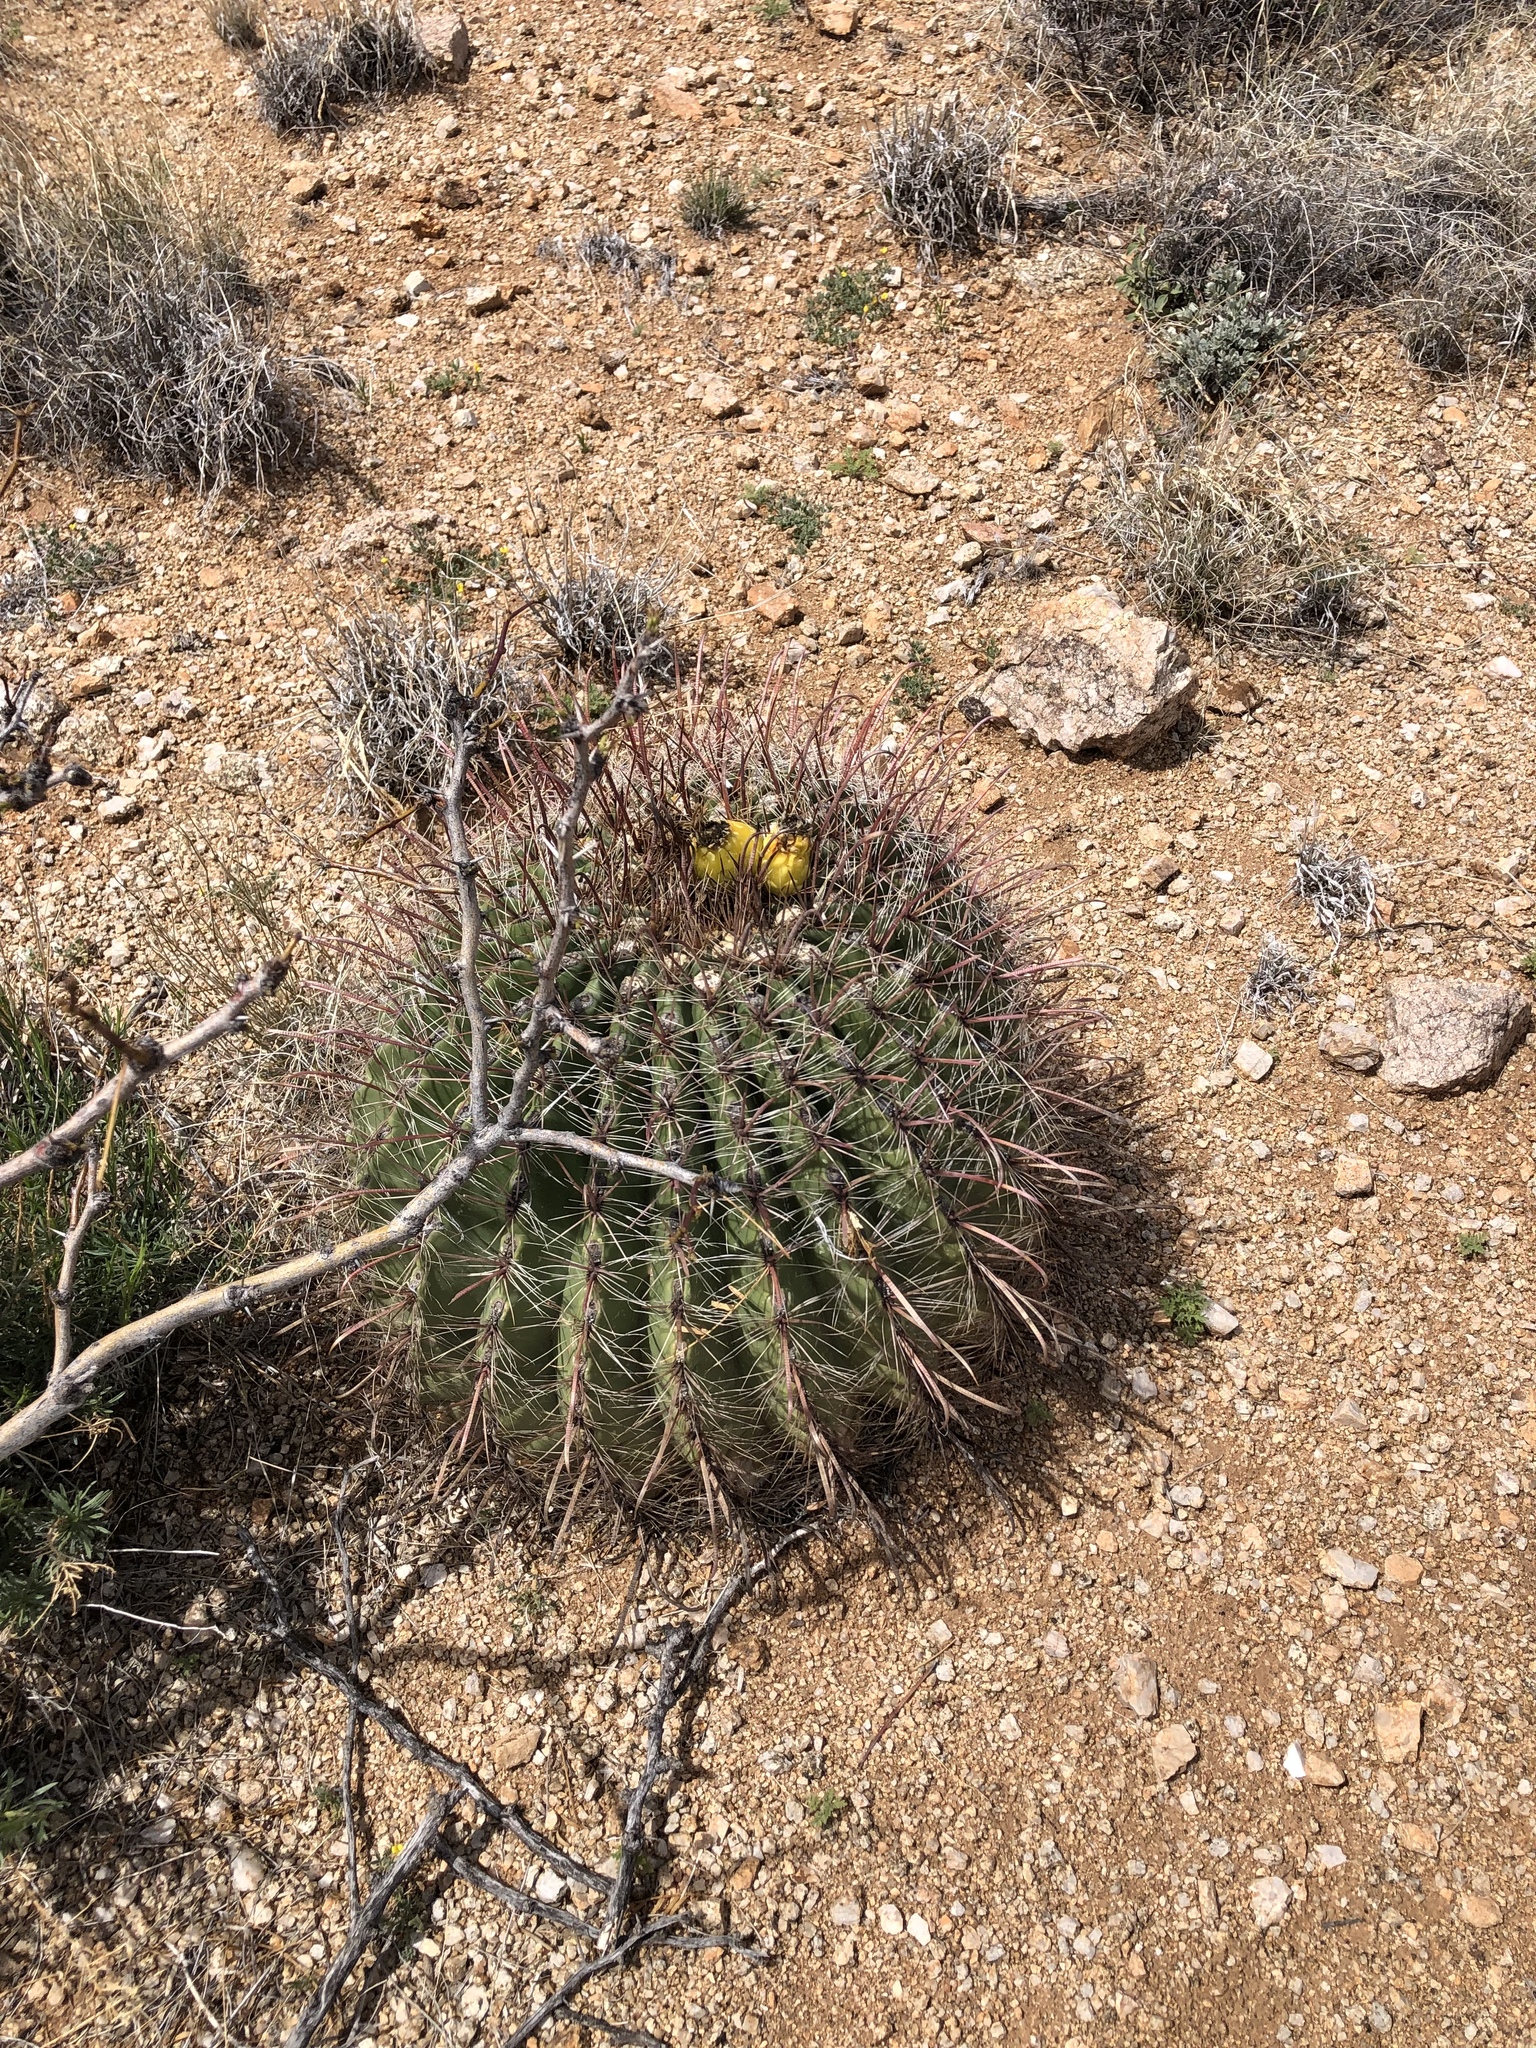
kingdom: Plantae
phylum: Tracheophyta
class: Magnoliopsida
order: Caryophyllales
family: Cactaceae
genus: Ferocactus
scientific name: Ferocactus wislizeni
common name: Candy barrel cactus
